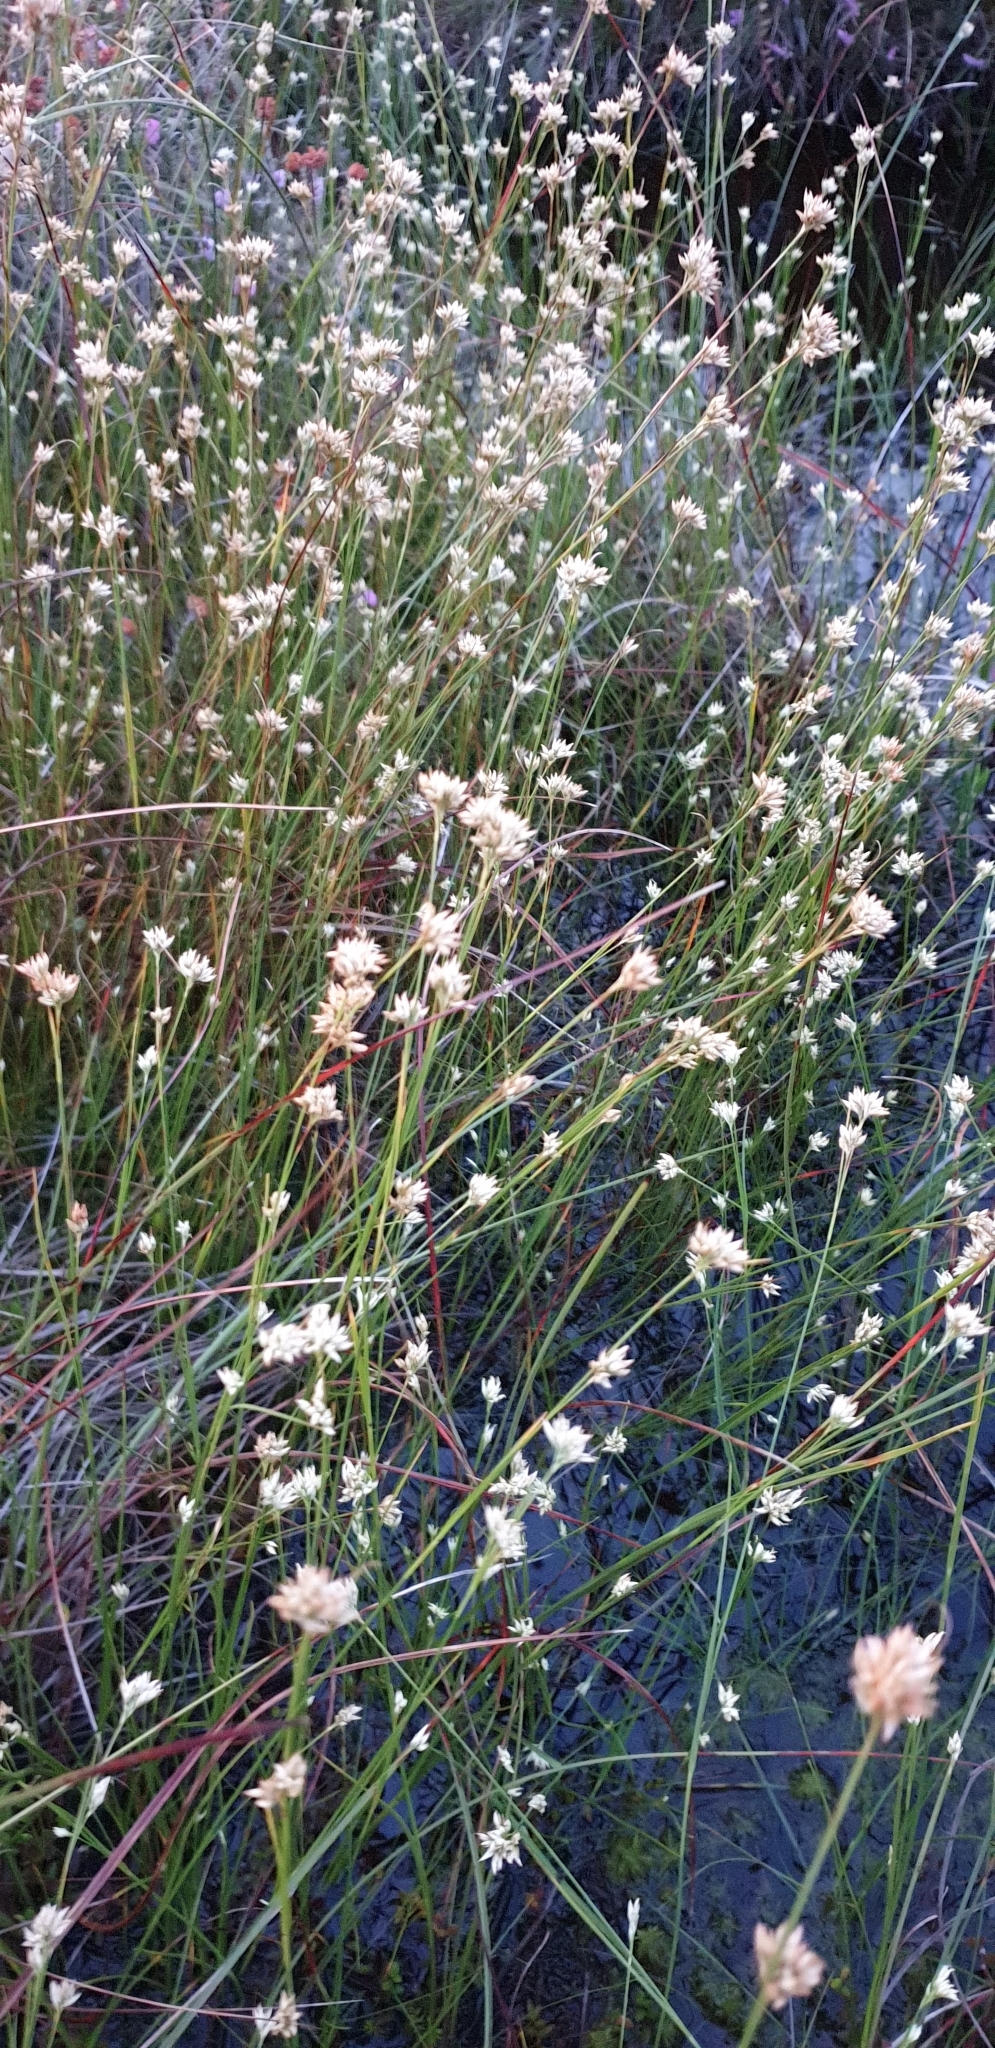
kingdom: Plantae
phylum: Tracheophyta
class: Liliopsida
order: Poales
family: Cyperaceae
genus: Rhynchospora
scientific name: Rhynchospora alba
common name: White beak-sedge
